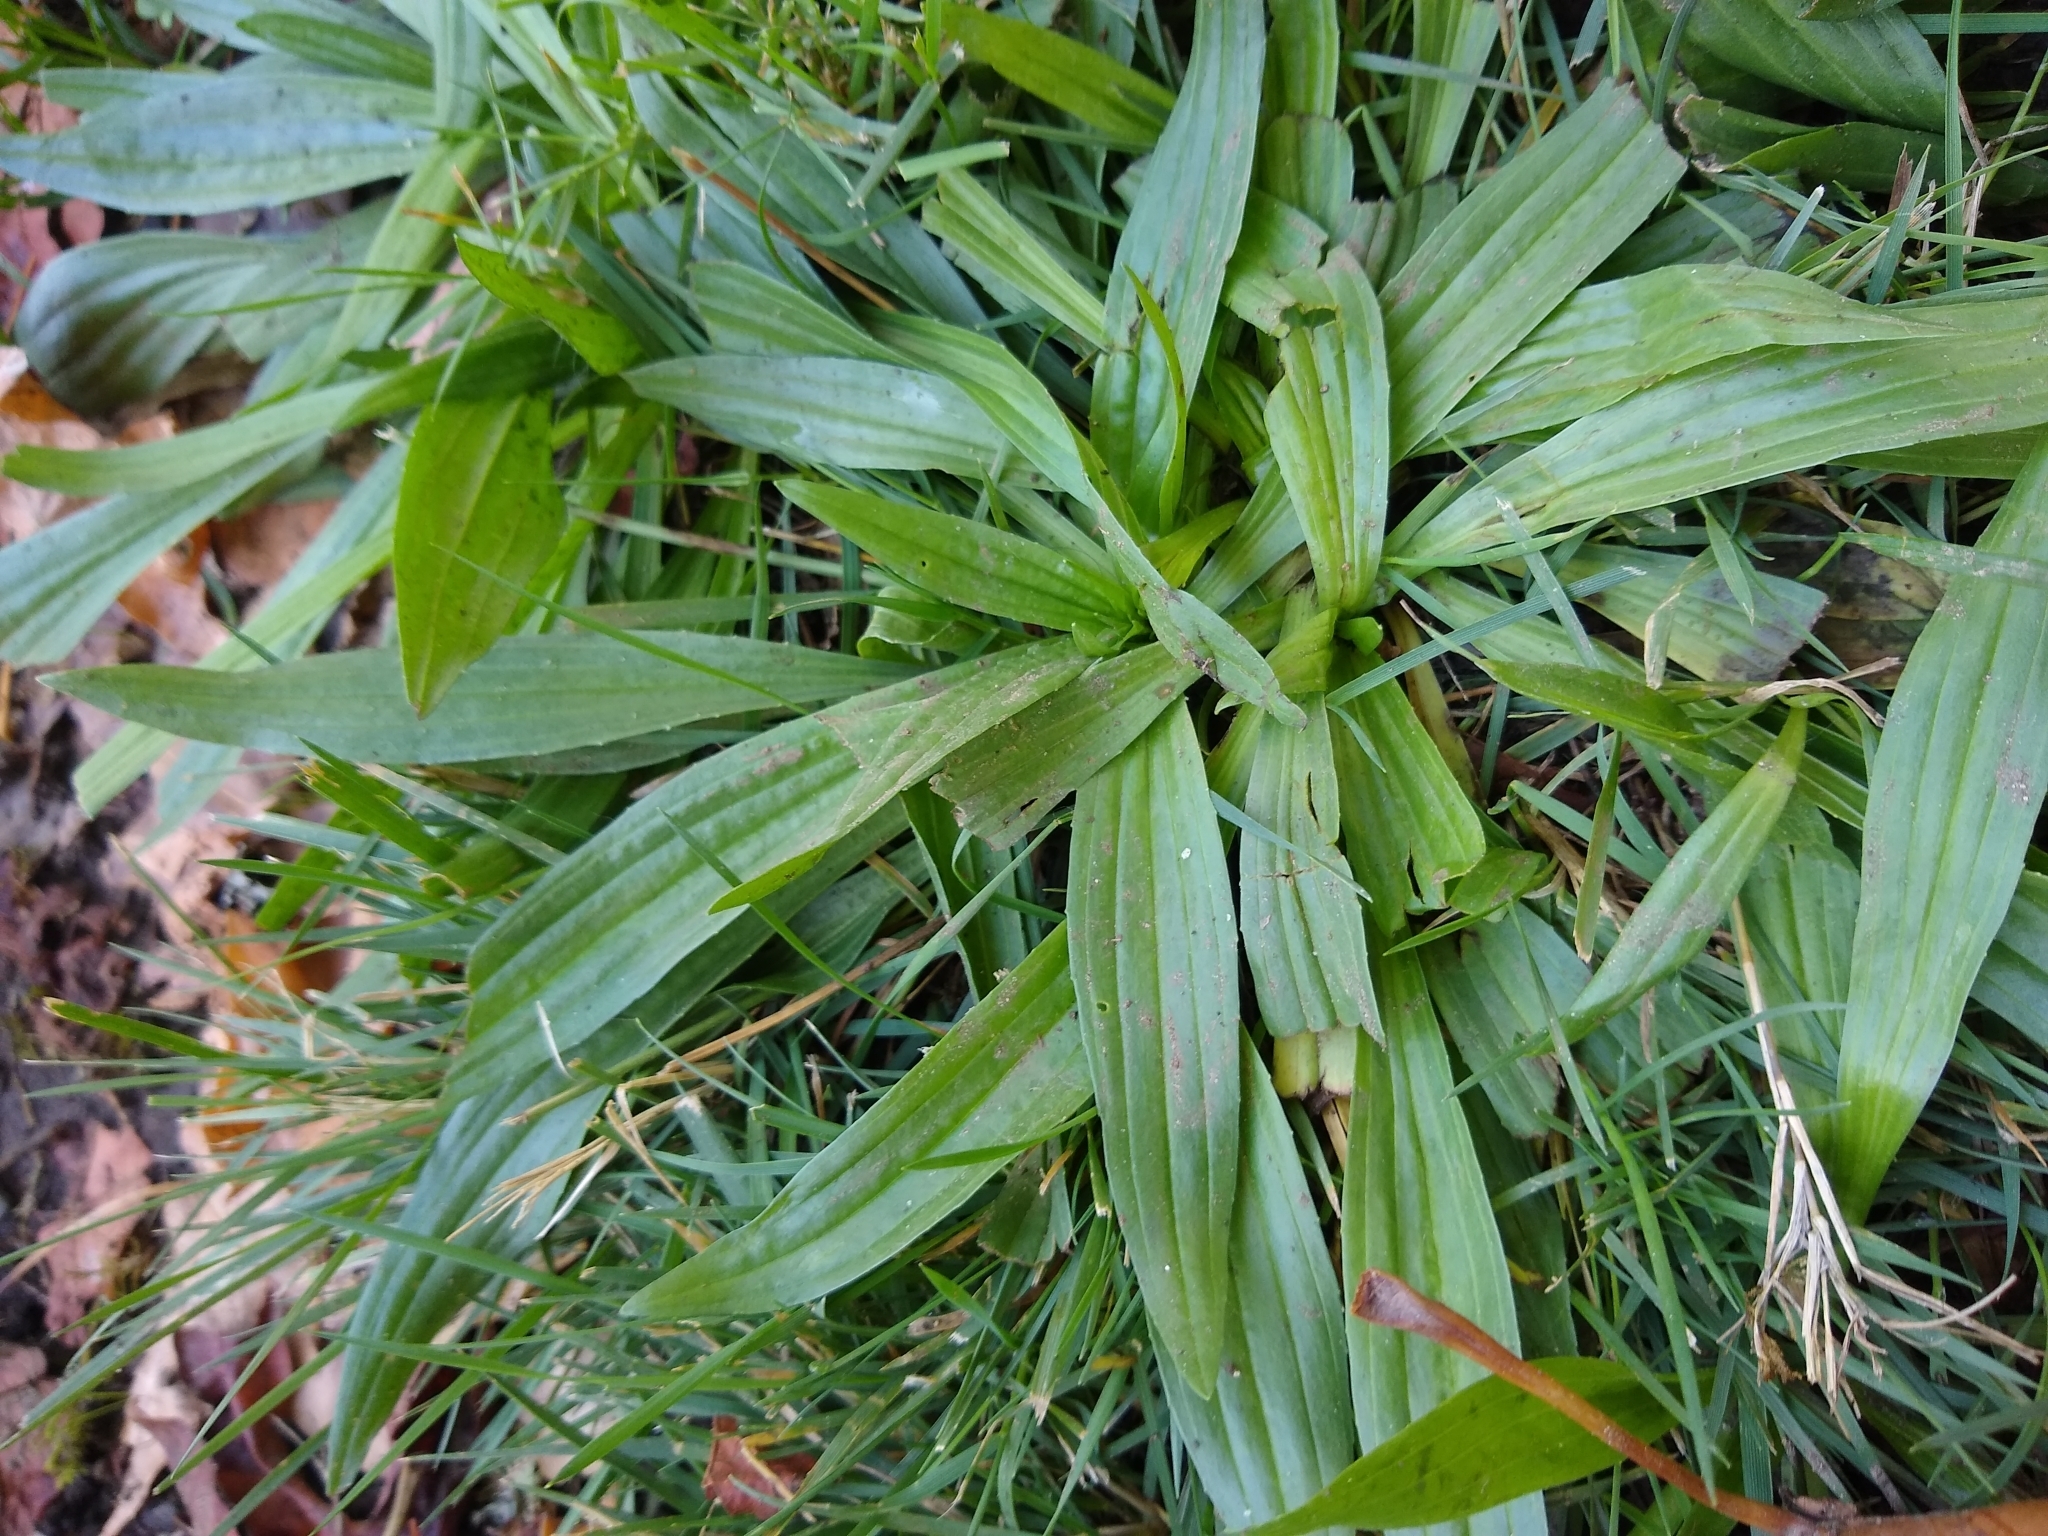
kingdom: Plantae
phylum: Tracheophyta
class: Magnoliopsida
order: Lamiales
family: Plantaginaceae
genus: Plantago
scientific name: Plantago lanceolata
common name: Ribwort plantain
